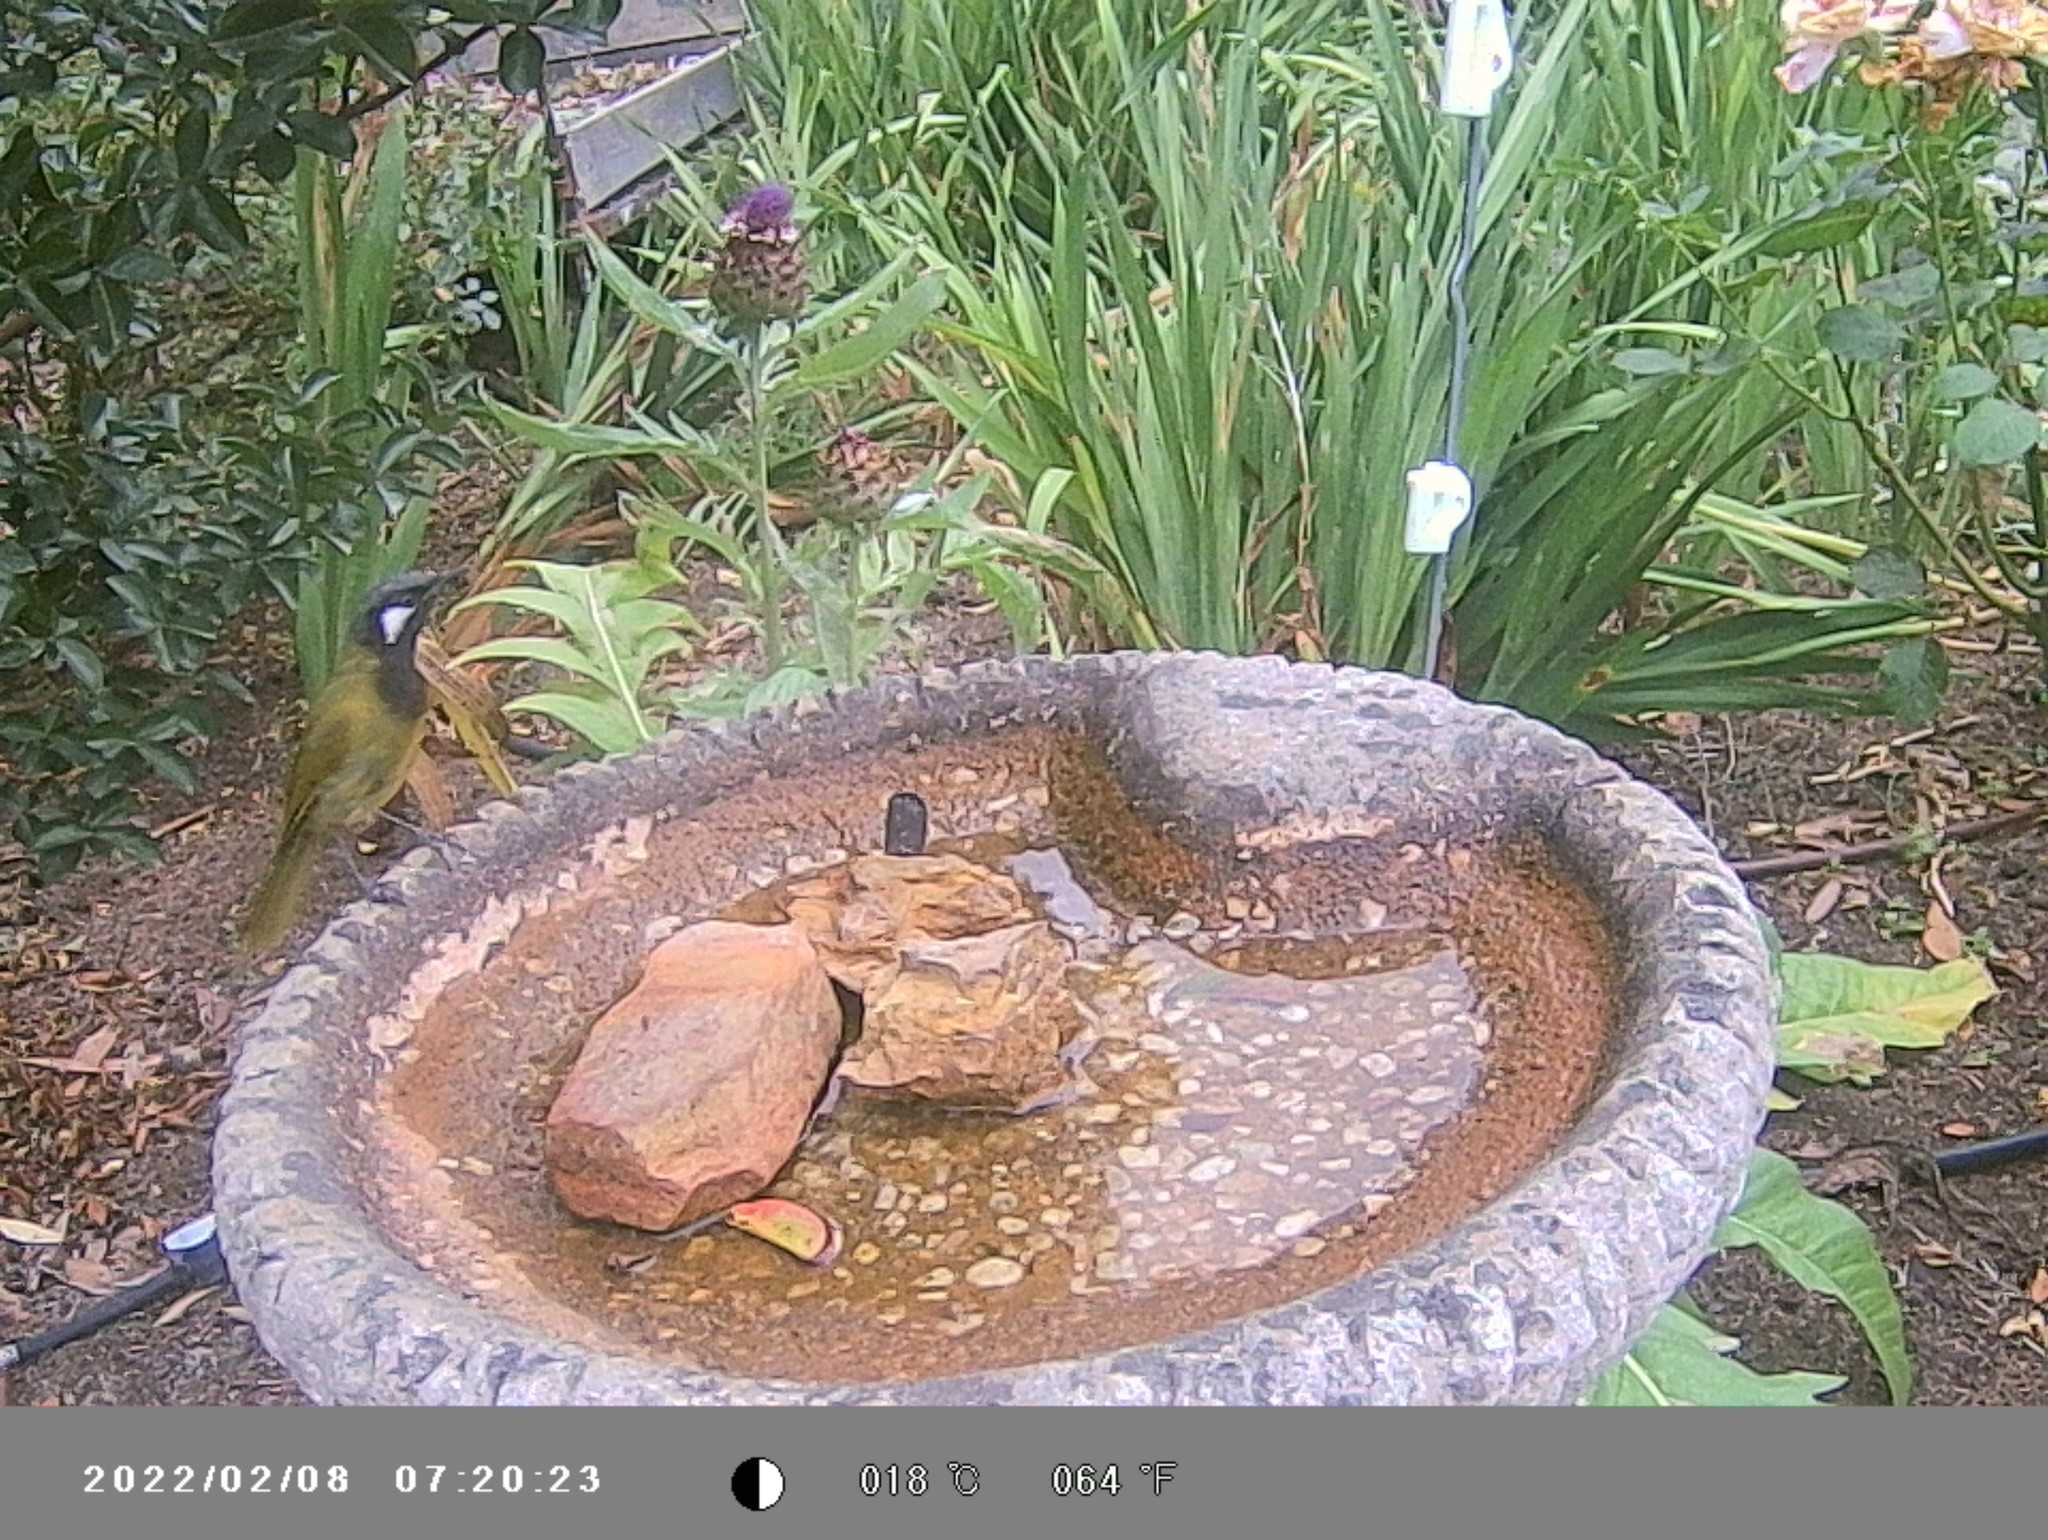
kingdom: Animalia
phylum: Chordata
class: Aves
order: Passeriformes
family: Meliphagidae
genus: Nesoptilotis
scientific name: Nesoptilotis leucotis
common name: White-eared honeyeater
